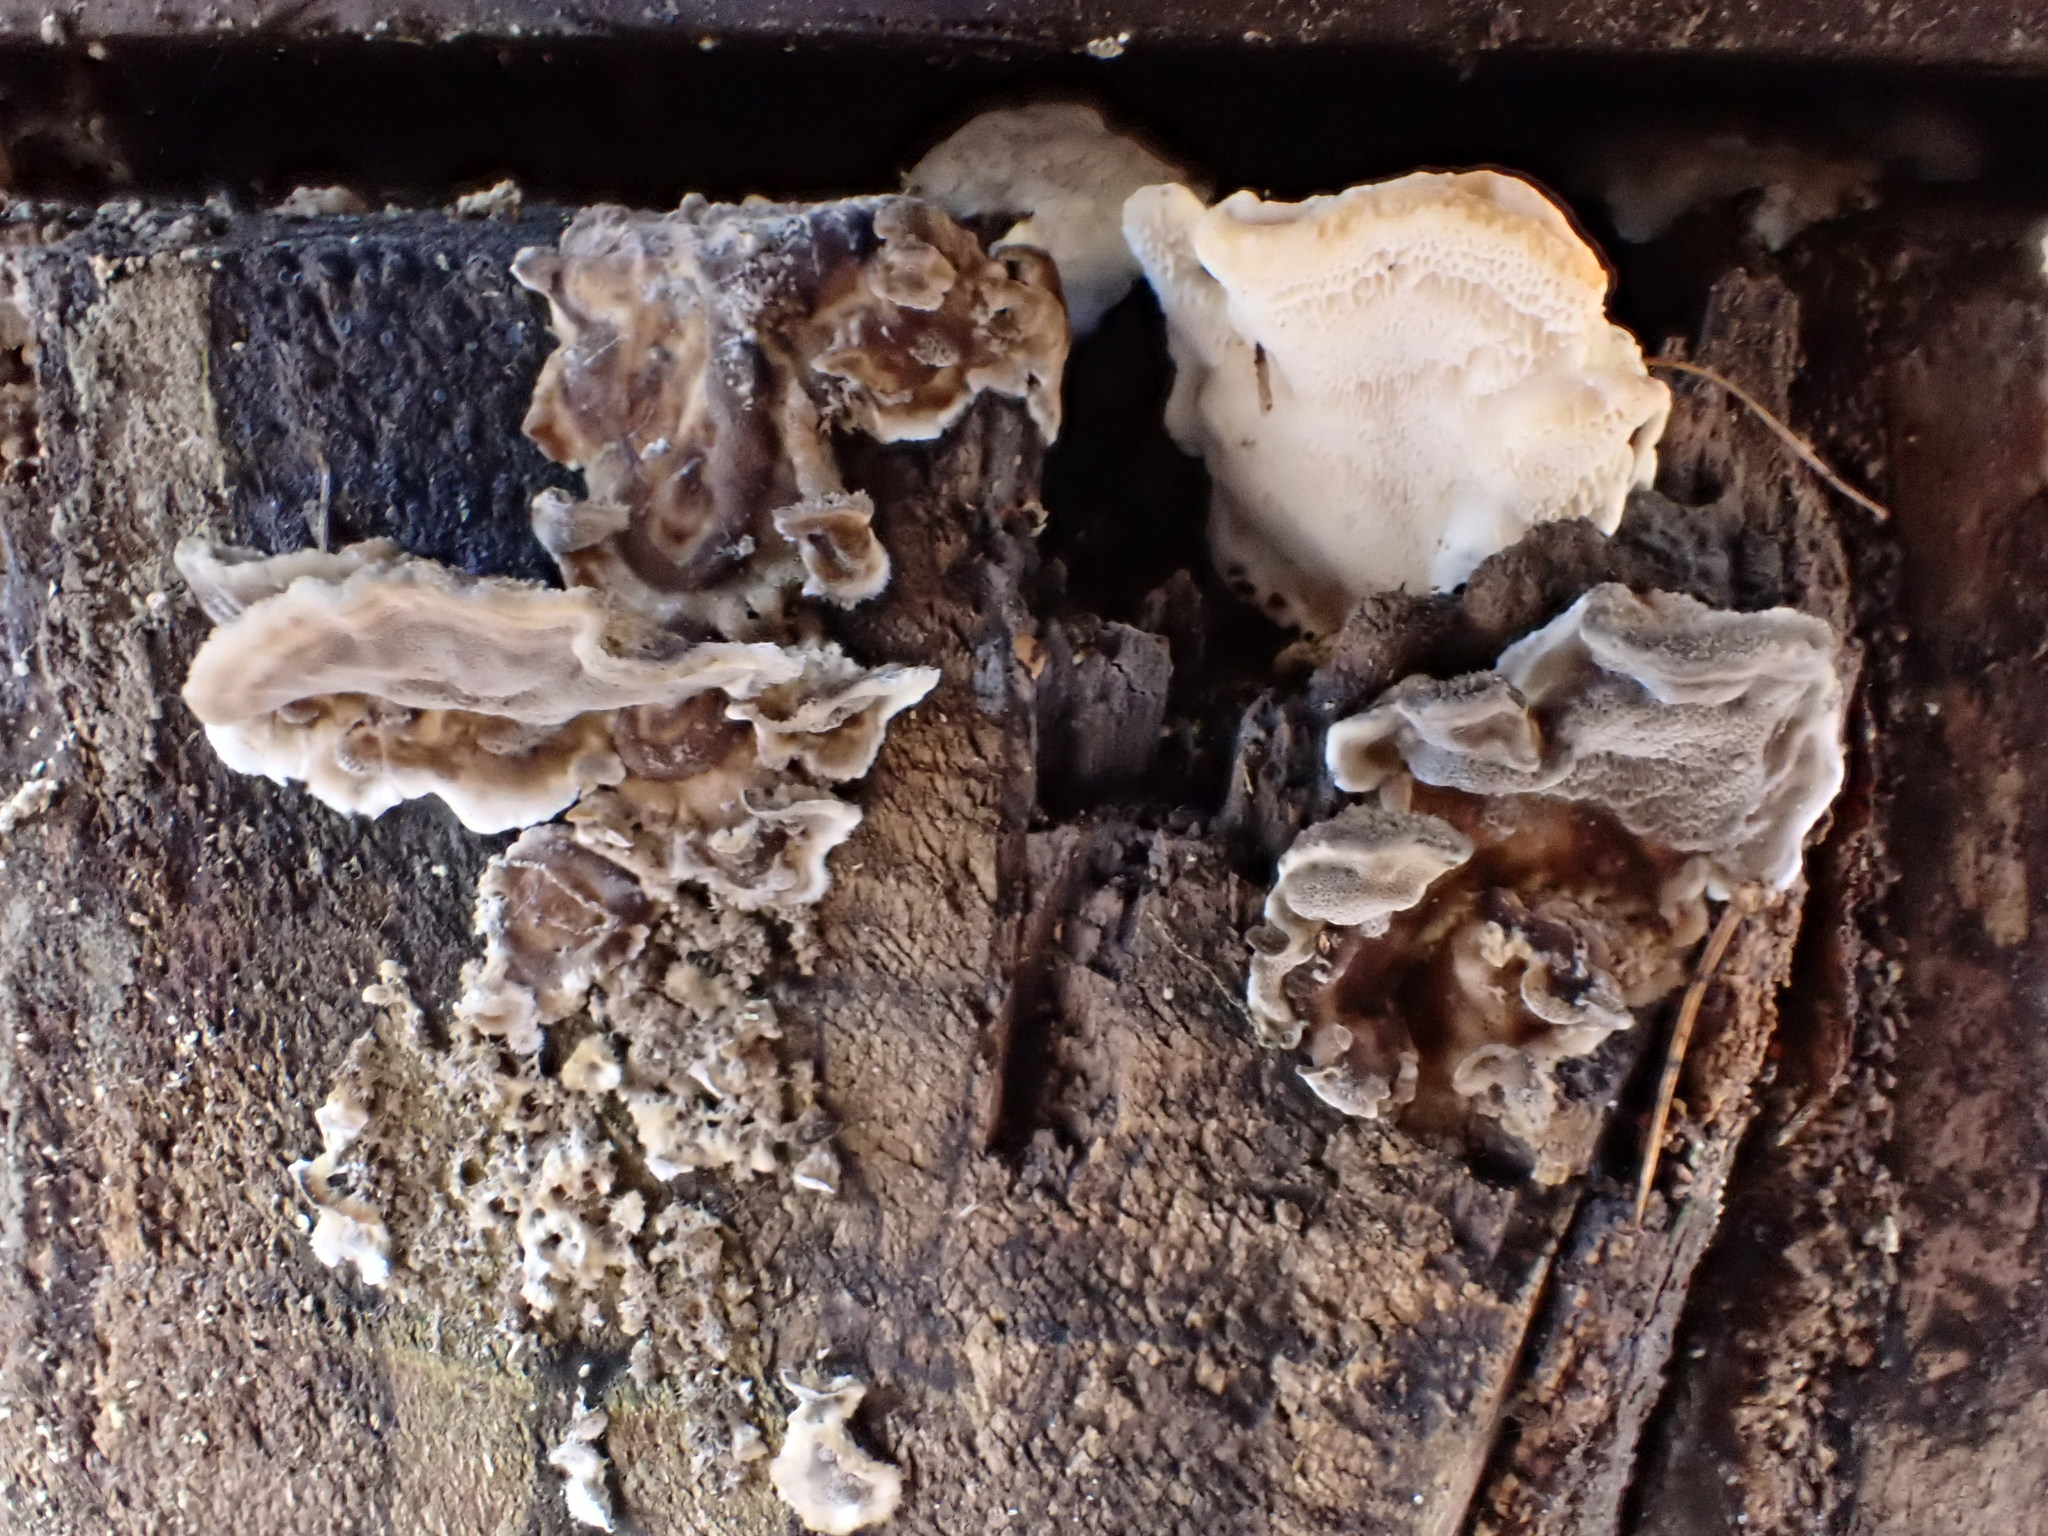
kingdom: Fungi
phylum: Basidiomycota
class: Agaricomycetes
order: Polyporales
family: Phanerochaetaceae
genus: Bjerkandera
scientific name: Bjerkandera adusta
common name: Smoky bracket
